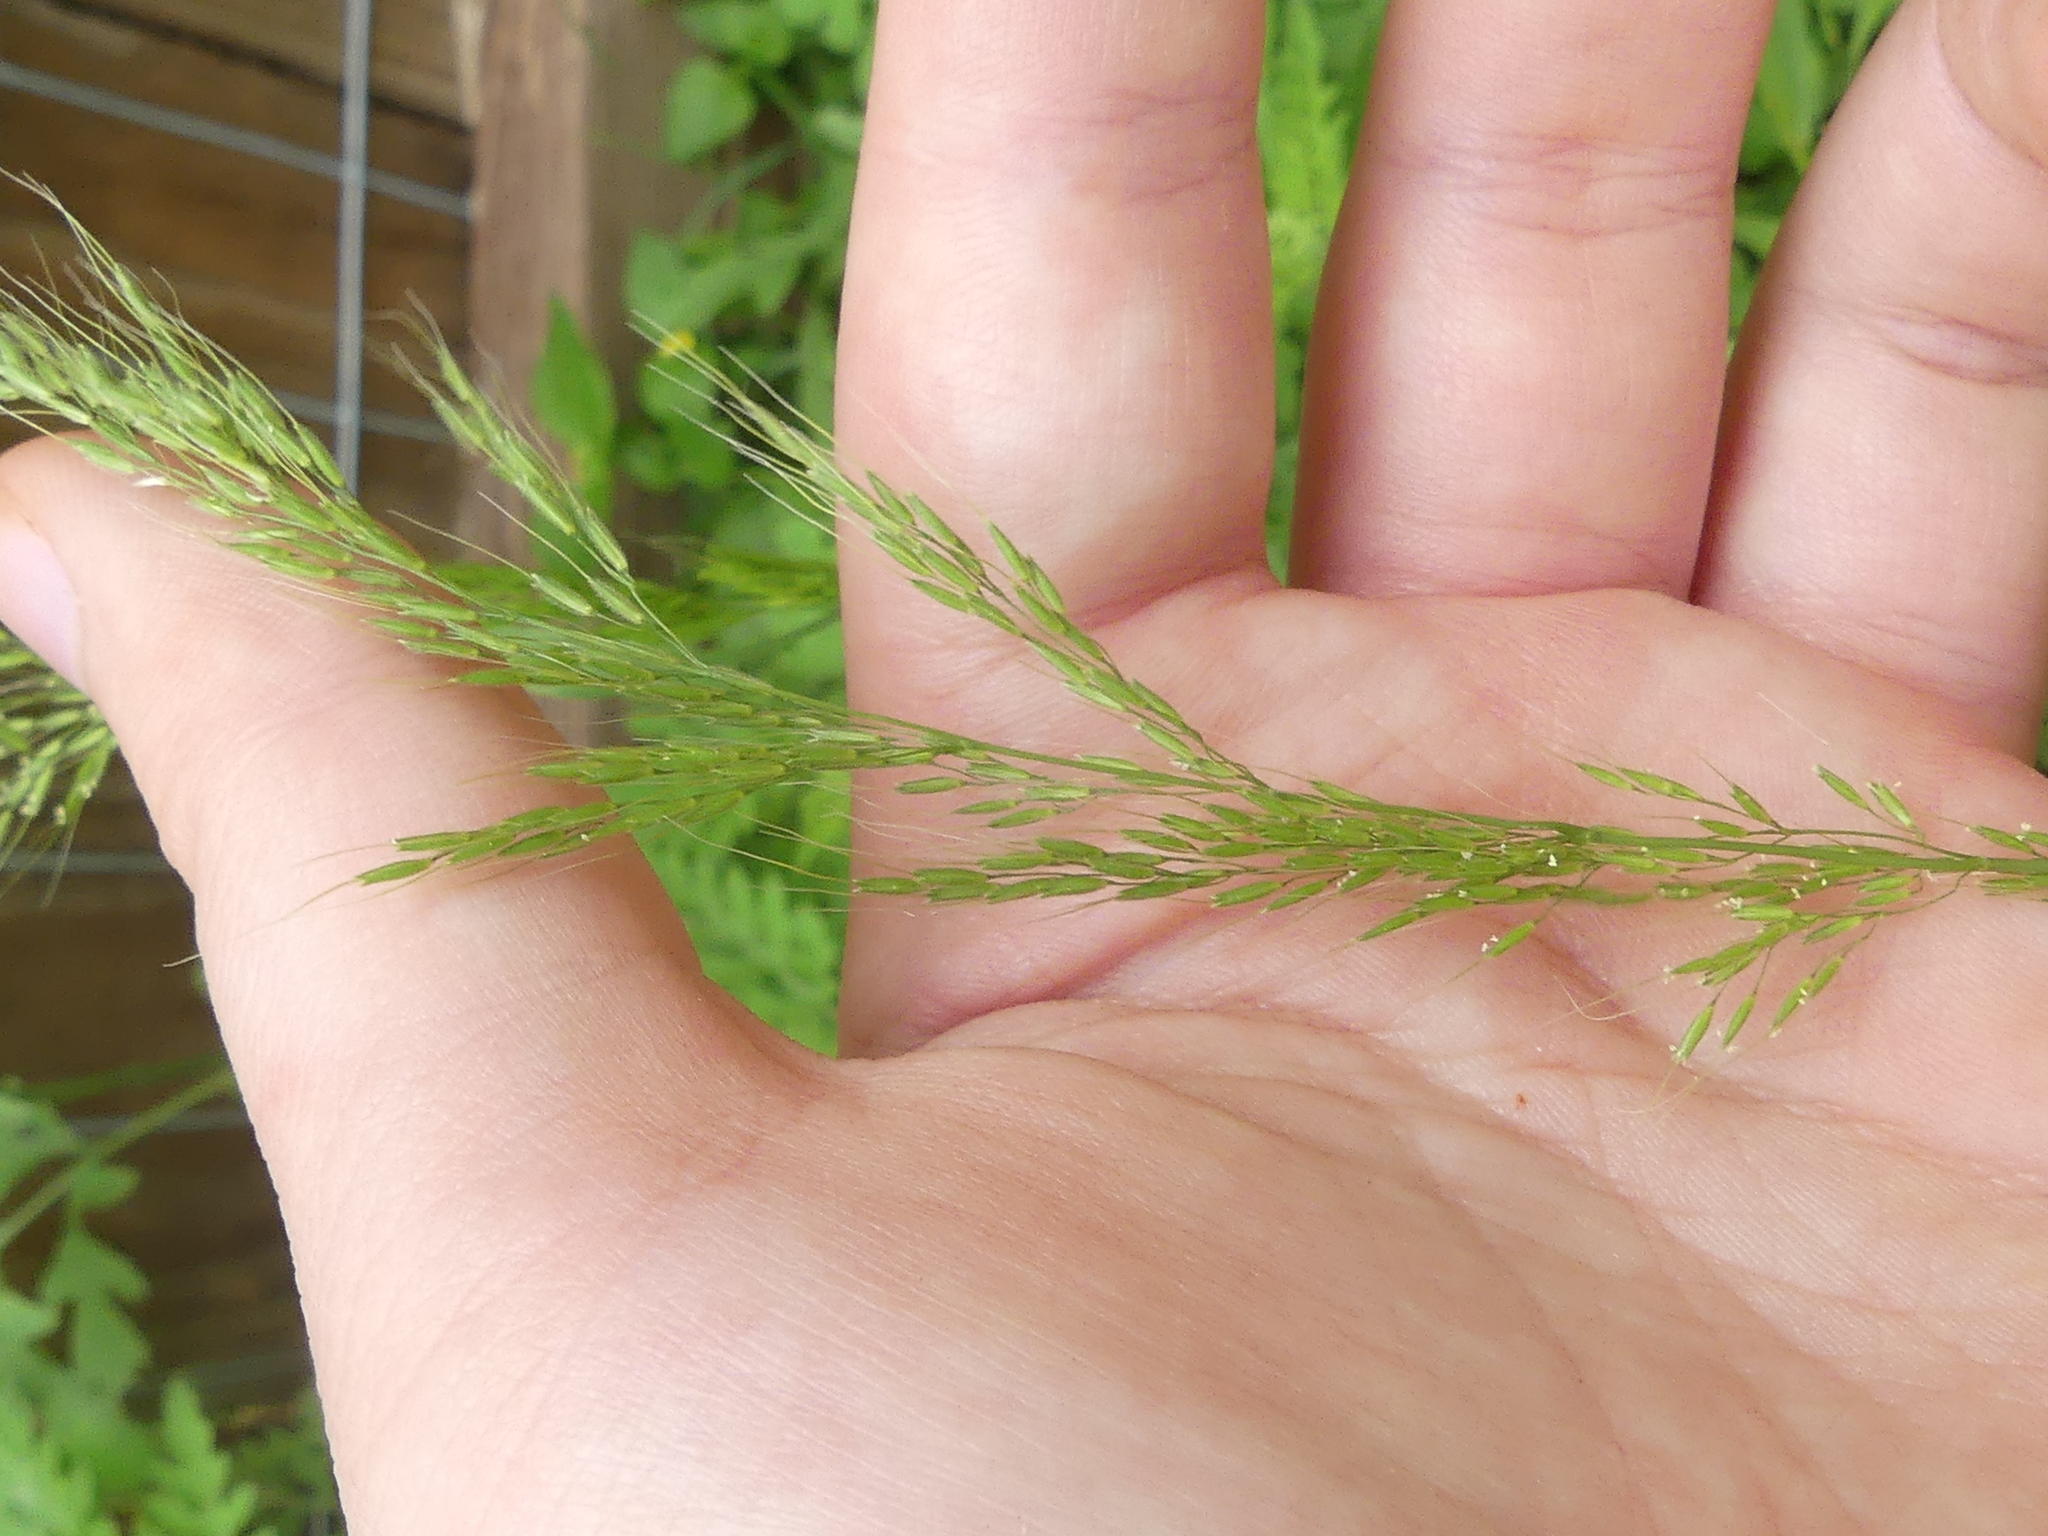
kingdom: Plantae
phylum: Tracheophyta
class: Liliopsida
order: Poales
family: Poaceae
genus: Limnodea
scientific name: Limnodea arkansana
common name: Ozark-grass
